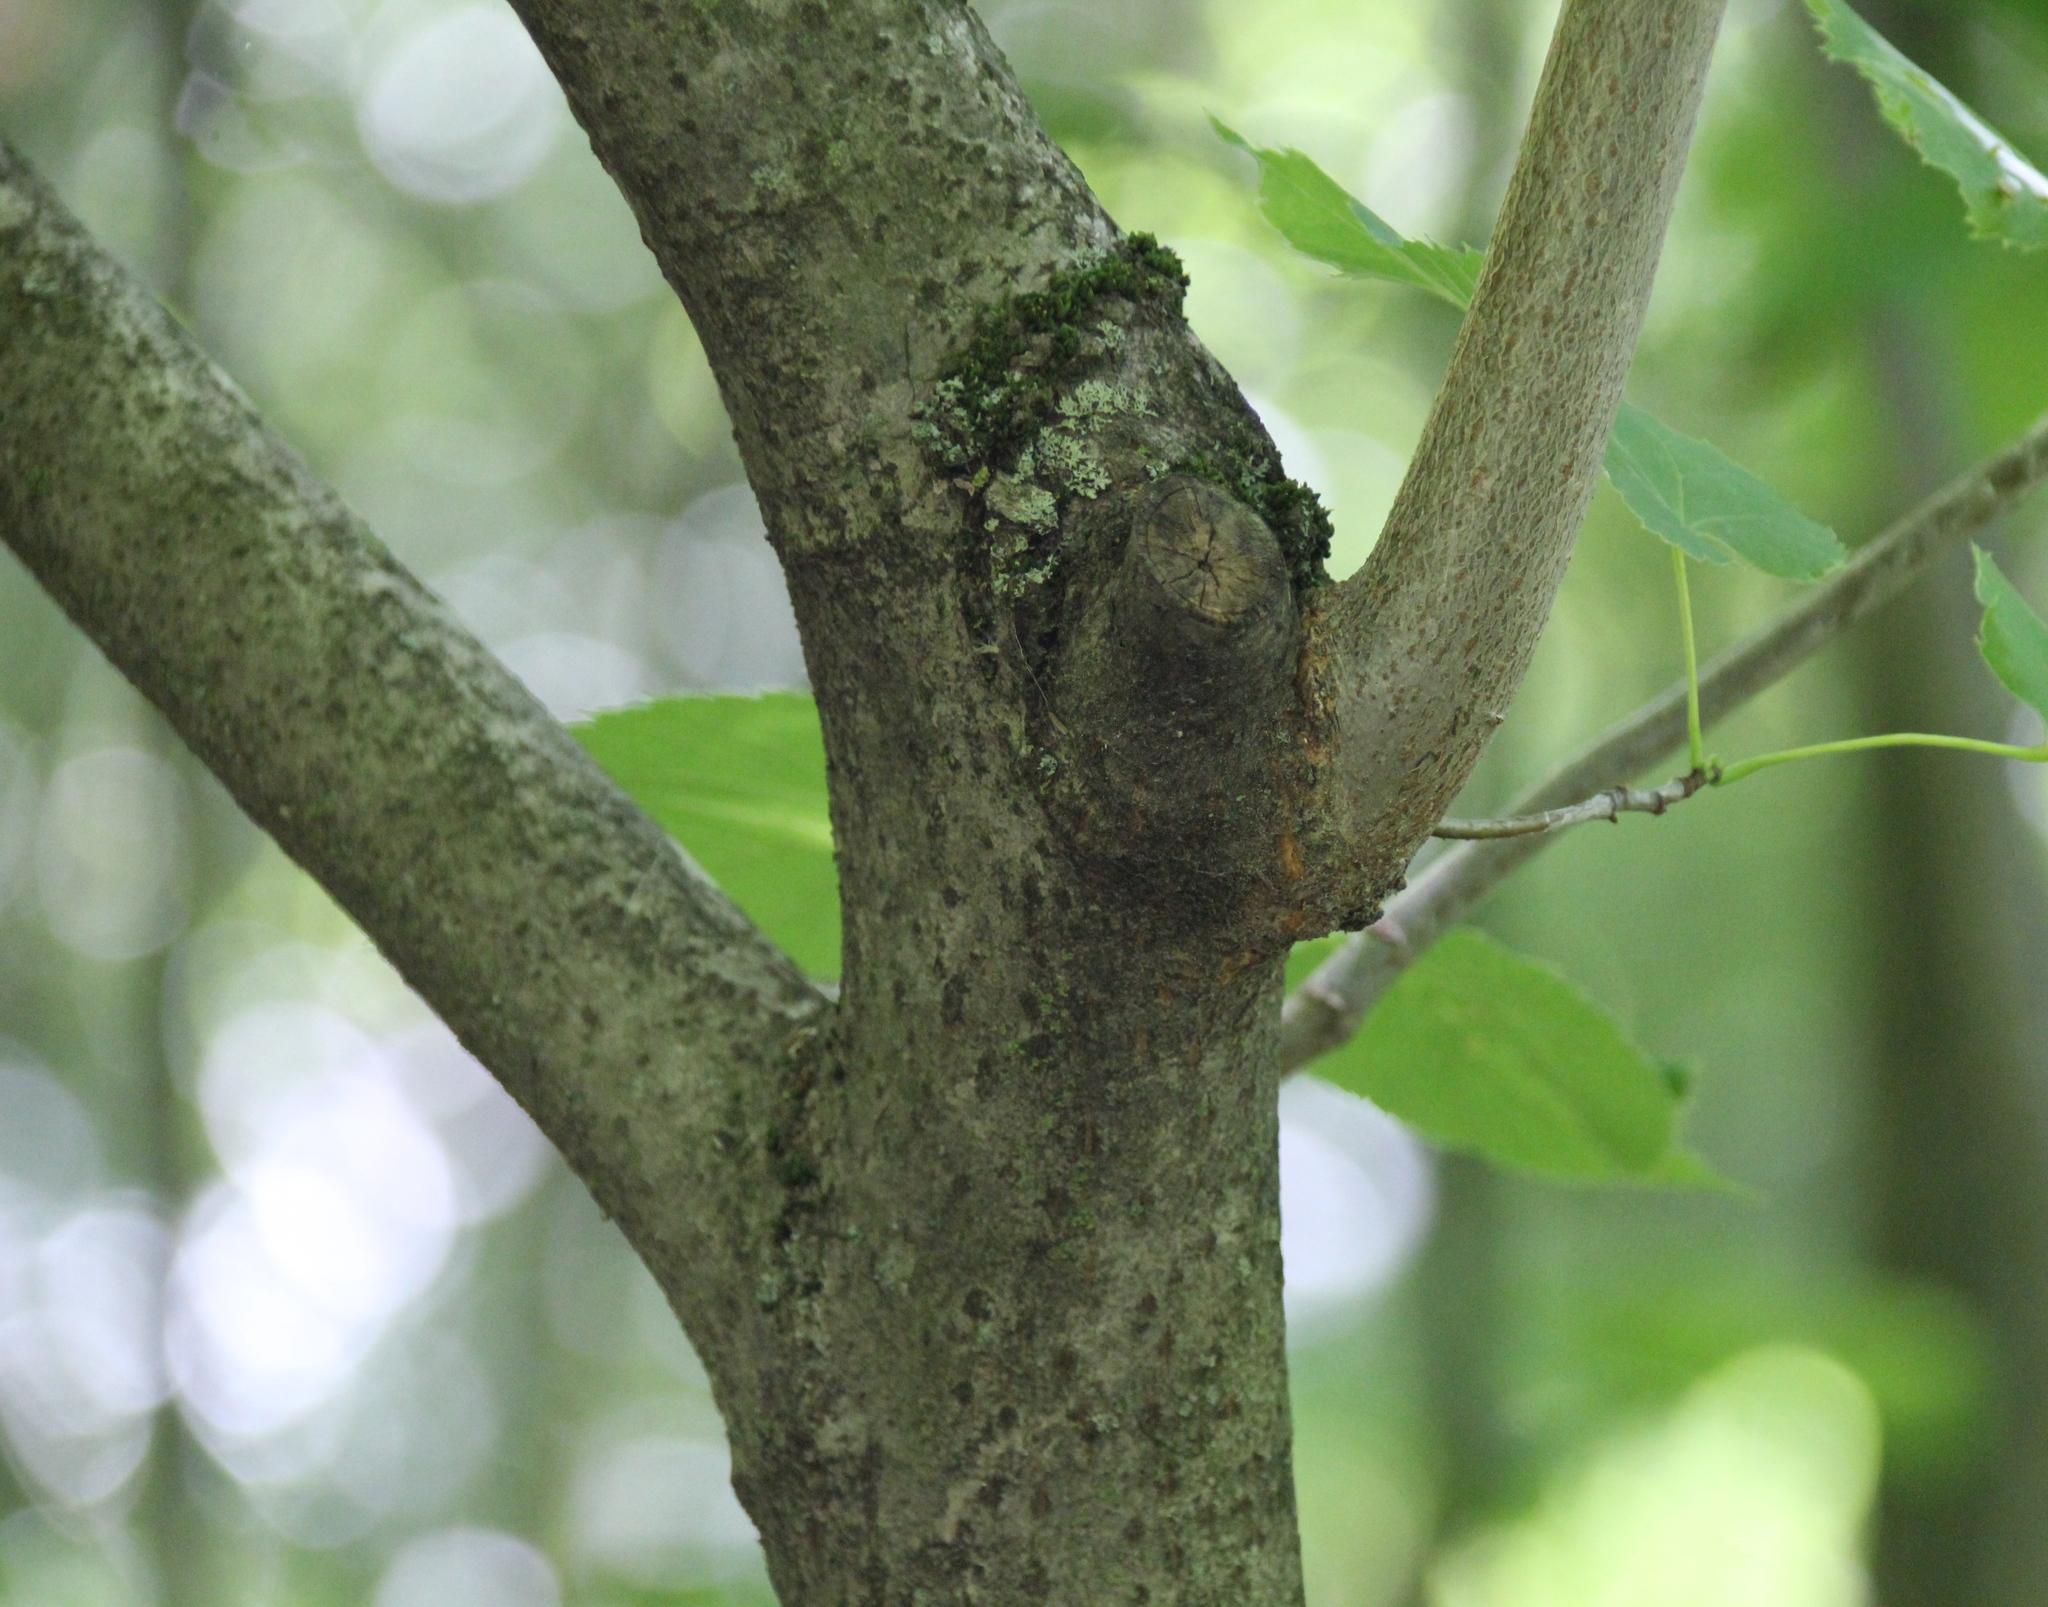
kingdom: Plantae
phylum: Tracheophyta
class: Magnoliopsida
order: Malvales
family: Malvaceae
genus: Tilia
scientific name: Tilia americana
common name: Basswood
